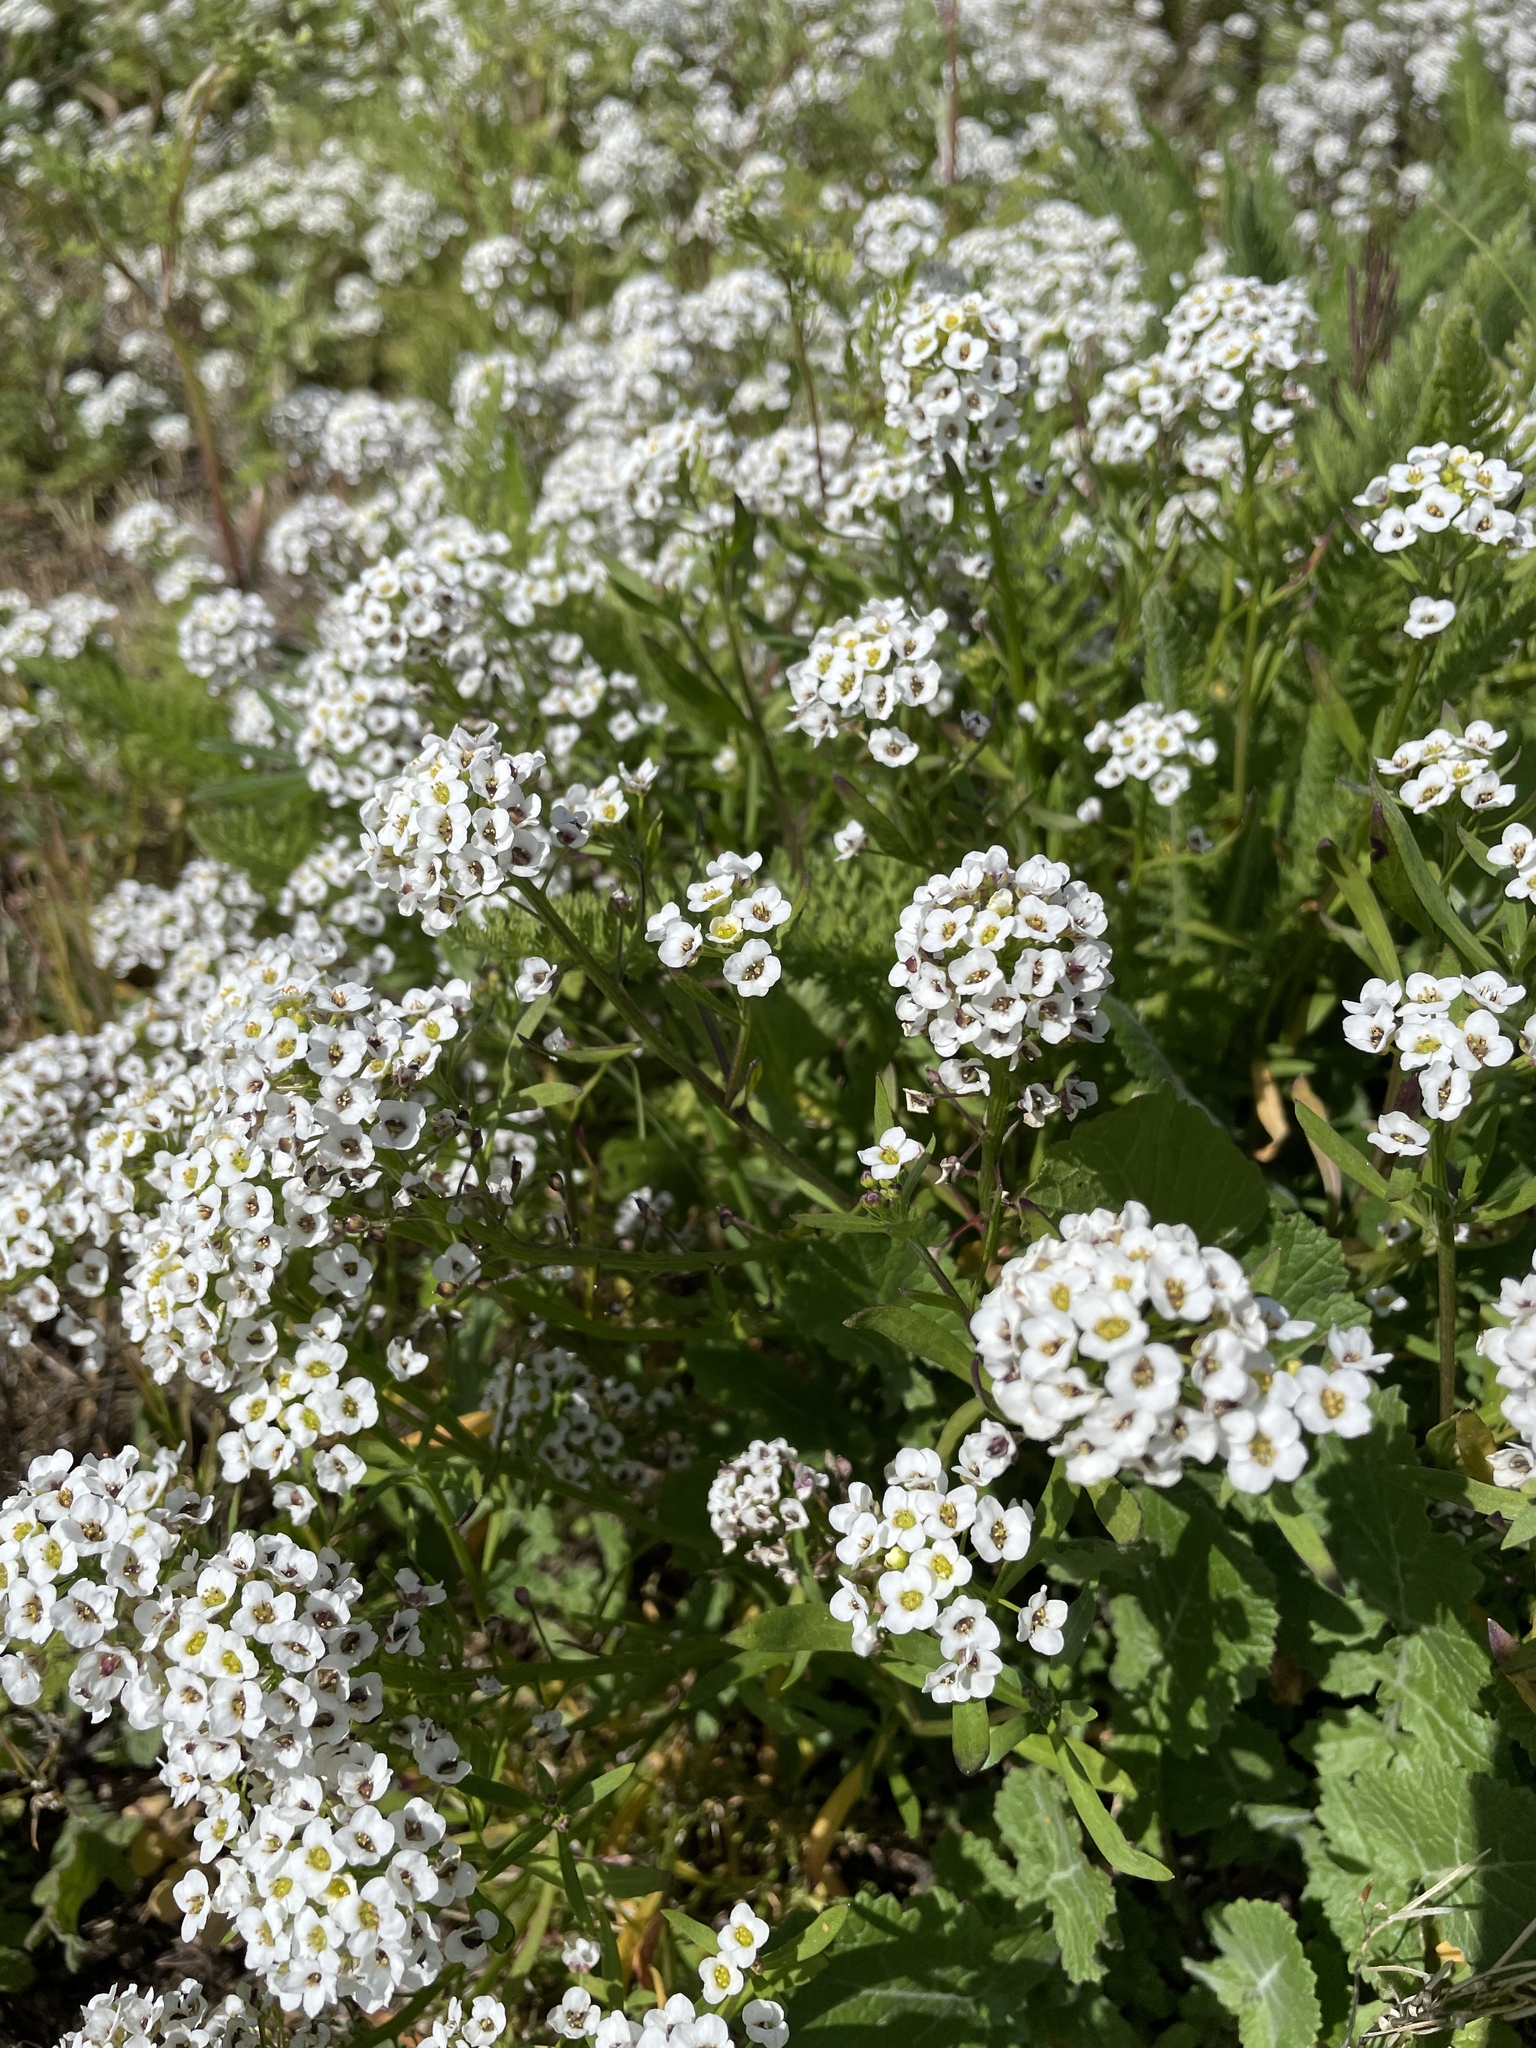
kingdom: Plantae
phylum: Tracheophyta
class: Magnoliopsida
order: Brassicales
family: Brassicaceae
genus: Lobularia
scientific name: Lobularia maritima
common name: Sweet alison
